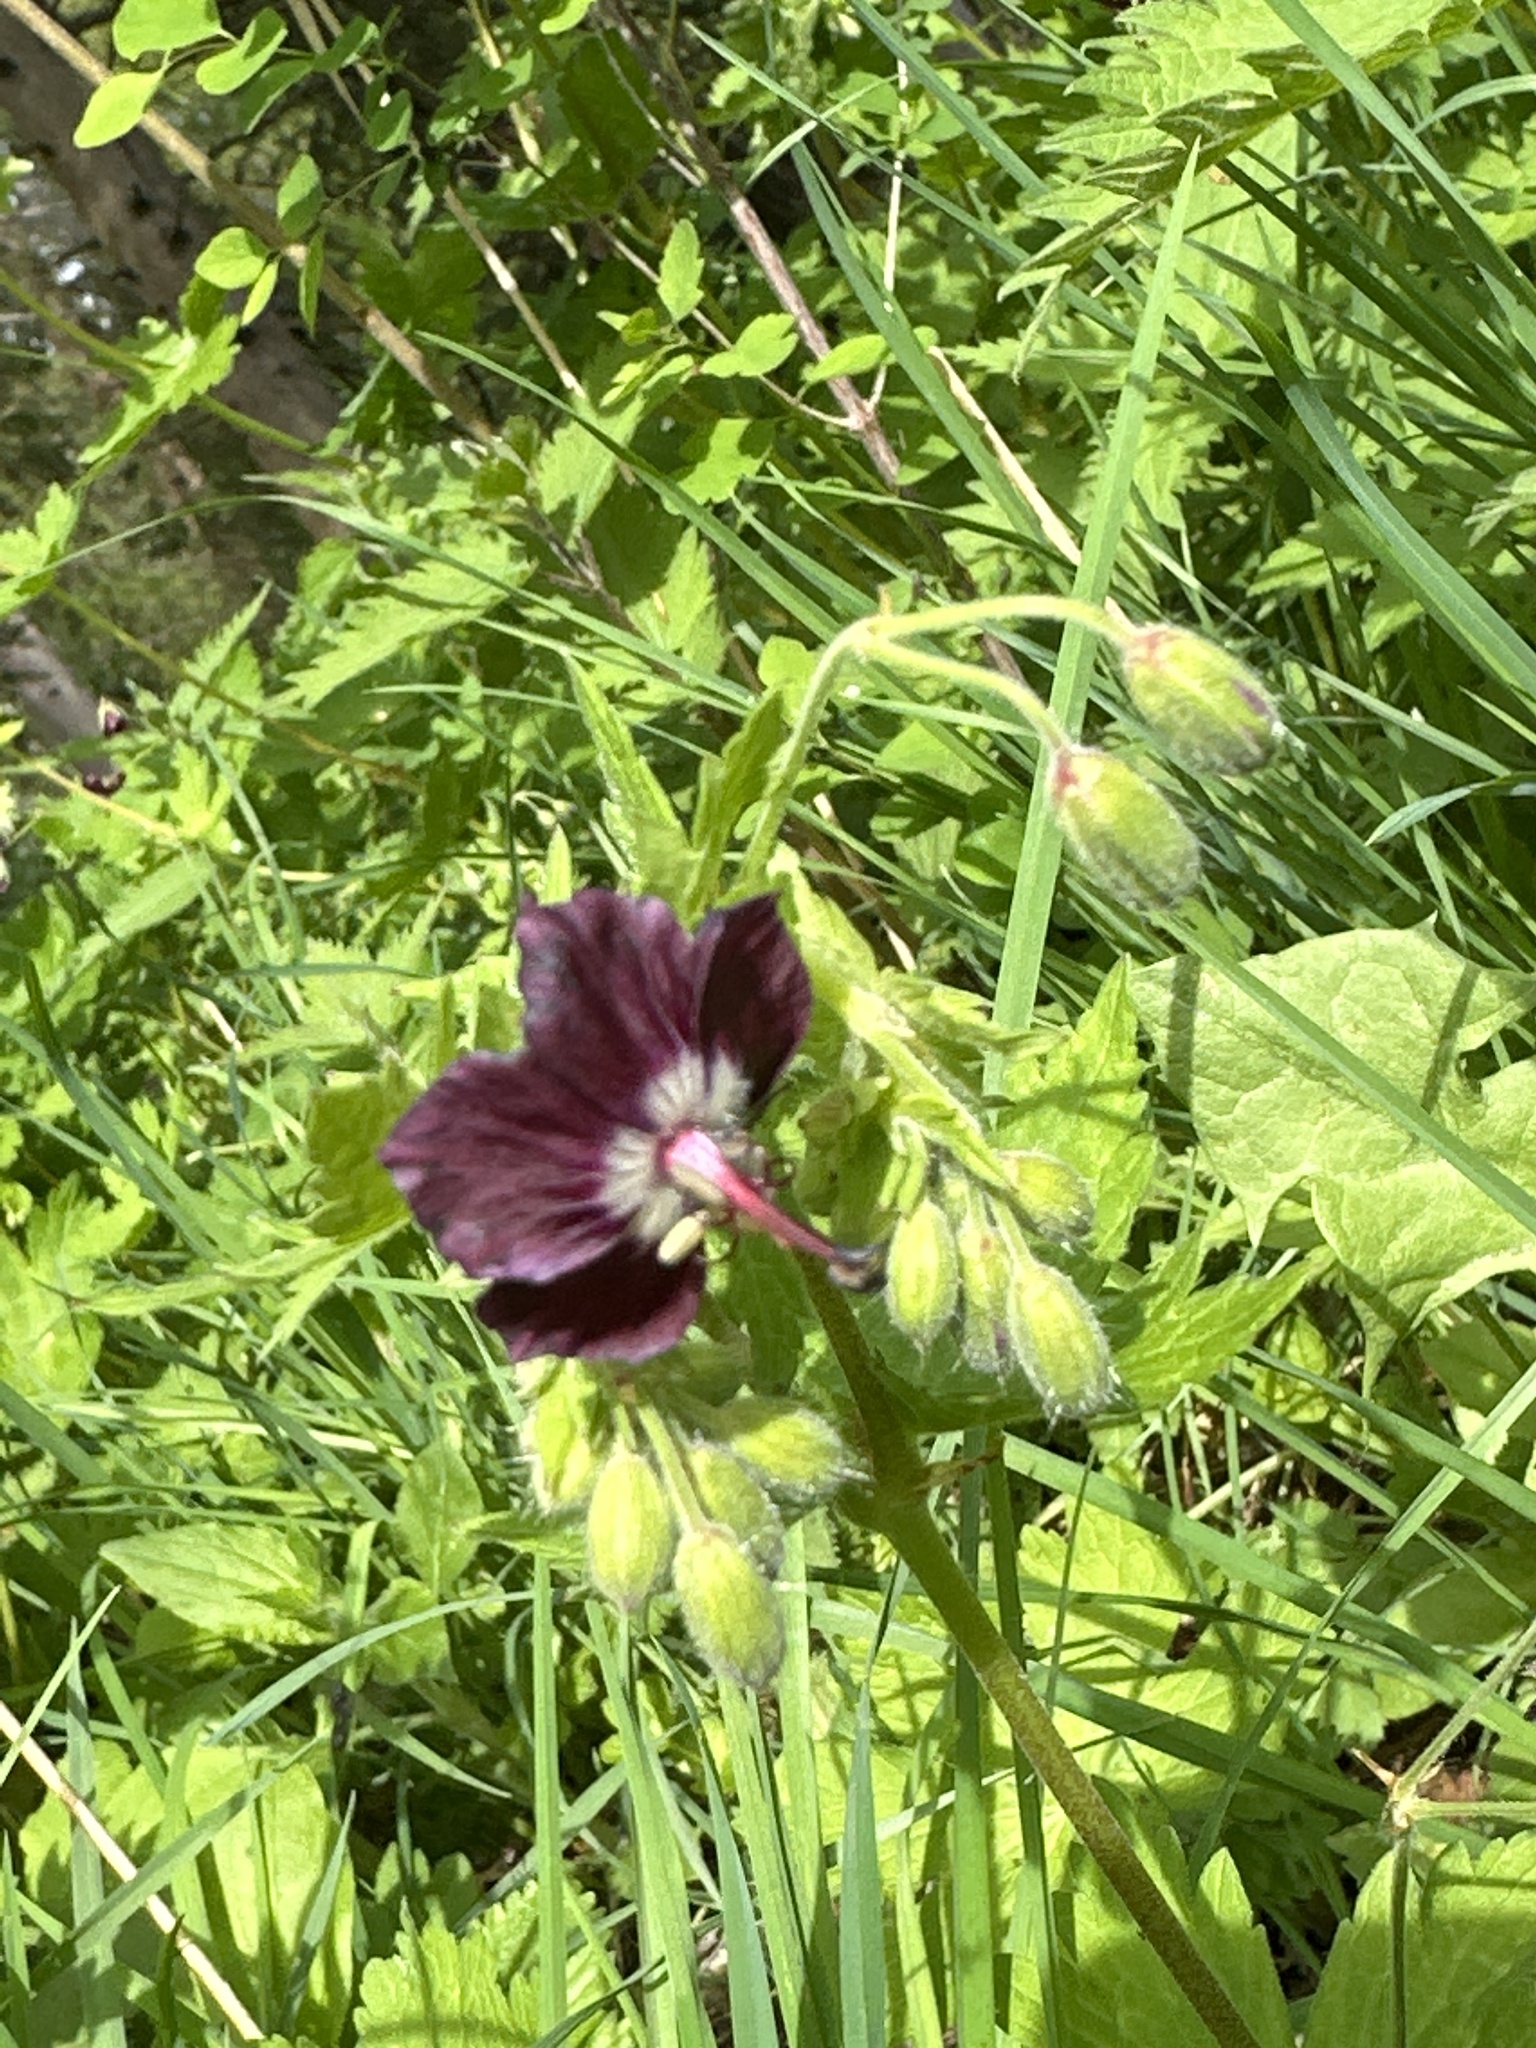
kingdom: Plantae
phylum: Tracheophyta
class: Magnoliopsida
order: Geraniales
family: Geraniaceae
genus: Geranium
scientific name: Geranium phaeum
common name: Dusky crane's-bill
